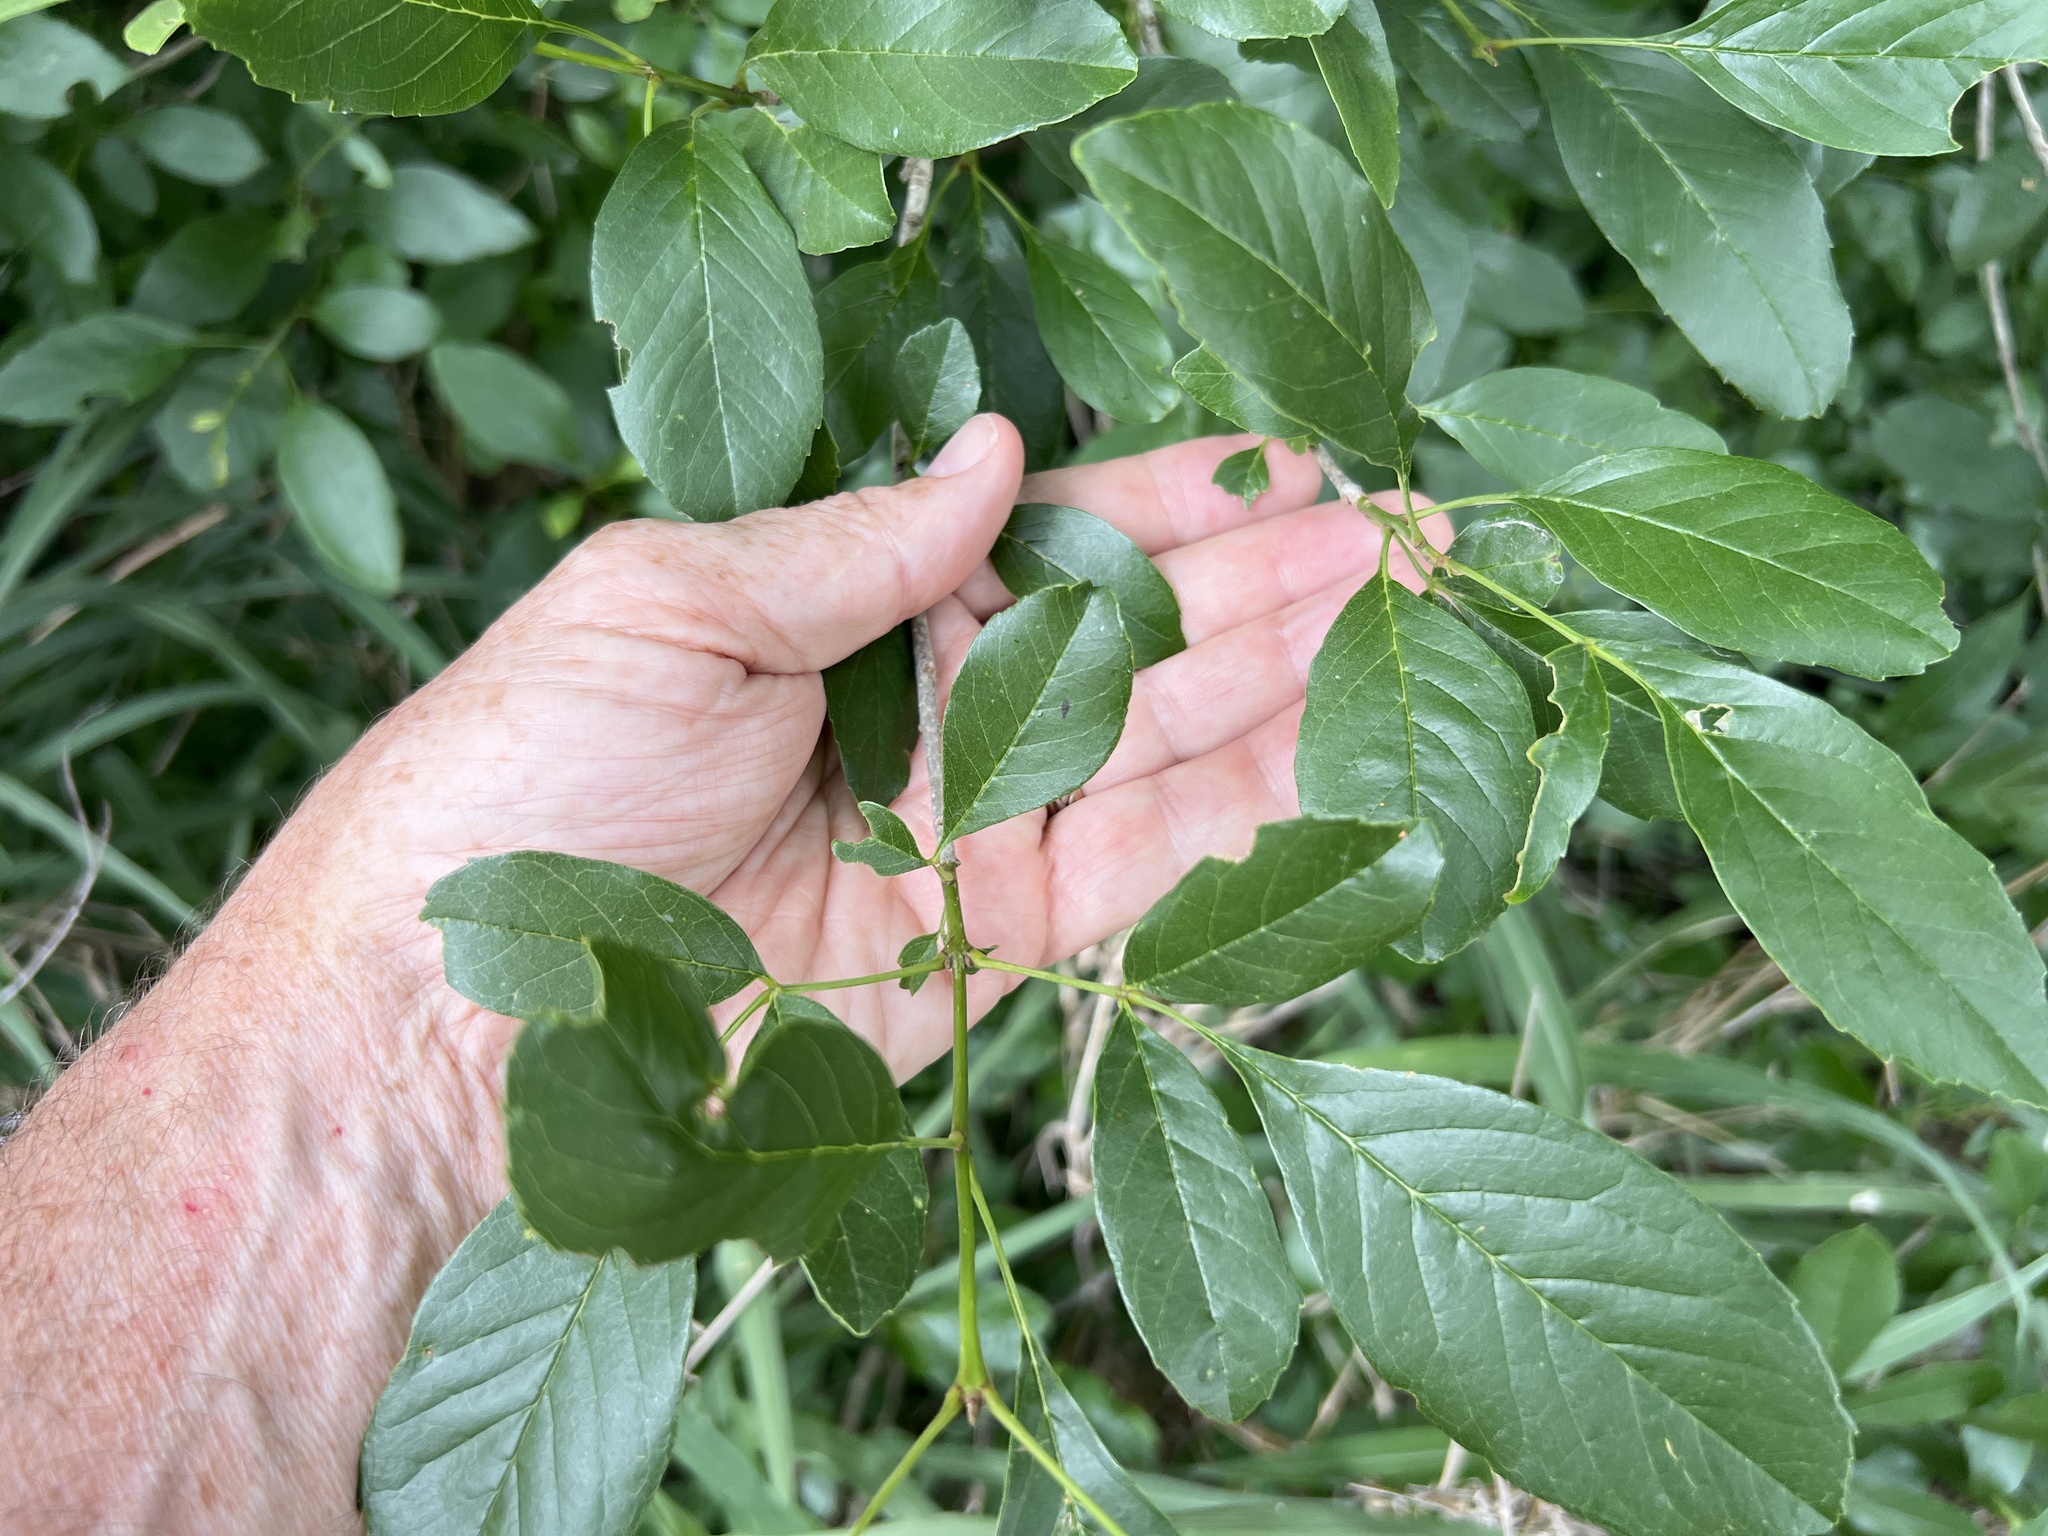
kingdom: Plantae
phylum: Tracheophyta
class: Magnoliopsida
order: Lamiales
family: Oleaceae
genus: Fraxinus
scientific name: Fraxinus berlandieriana
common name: Berlandier ash
